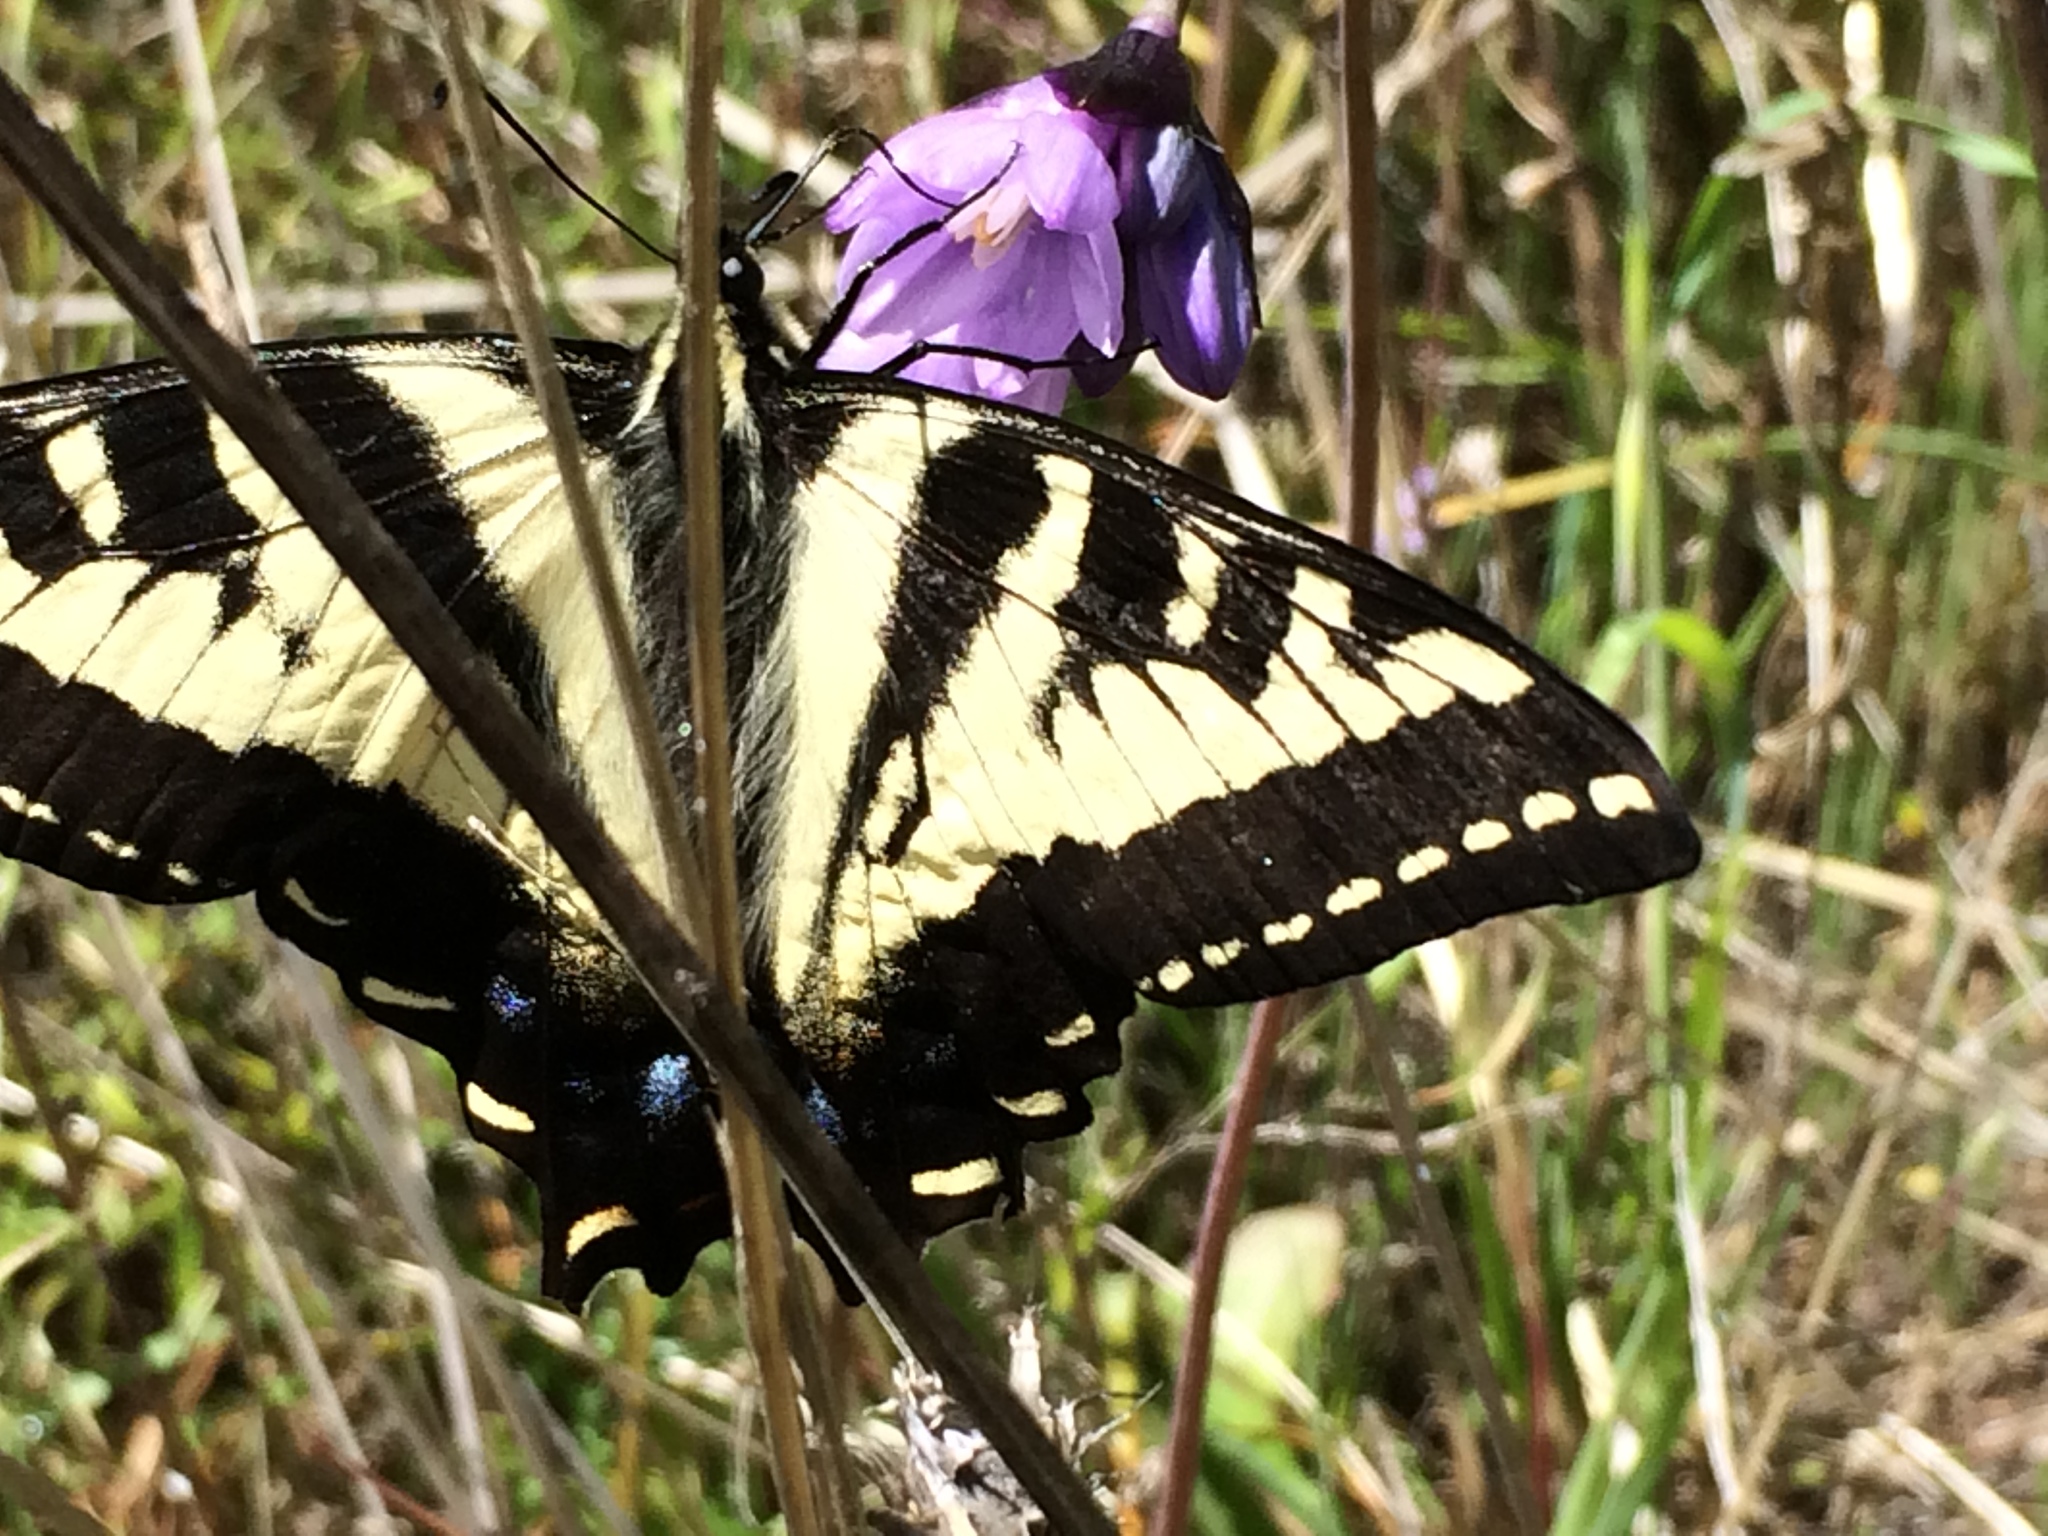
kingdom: Animalia
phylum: Arthropoda
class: Insecta
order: Lepidoptera
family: Papilionidae
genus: Papilio
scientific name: Papilio eurymedon
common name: Pale tiger swallowtail
